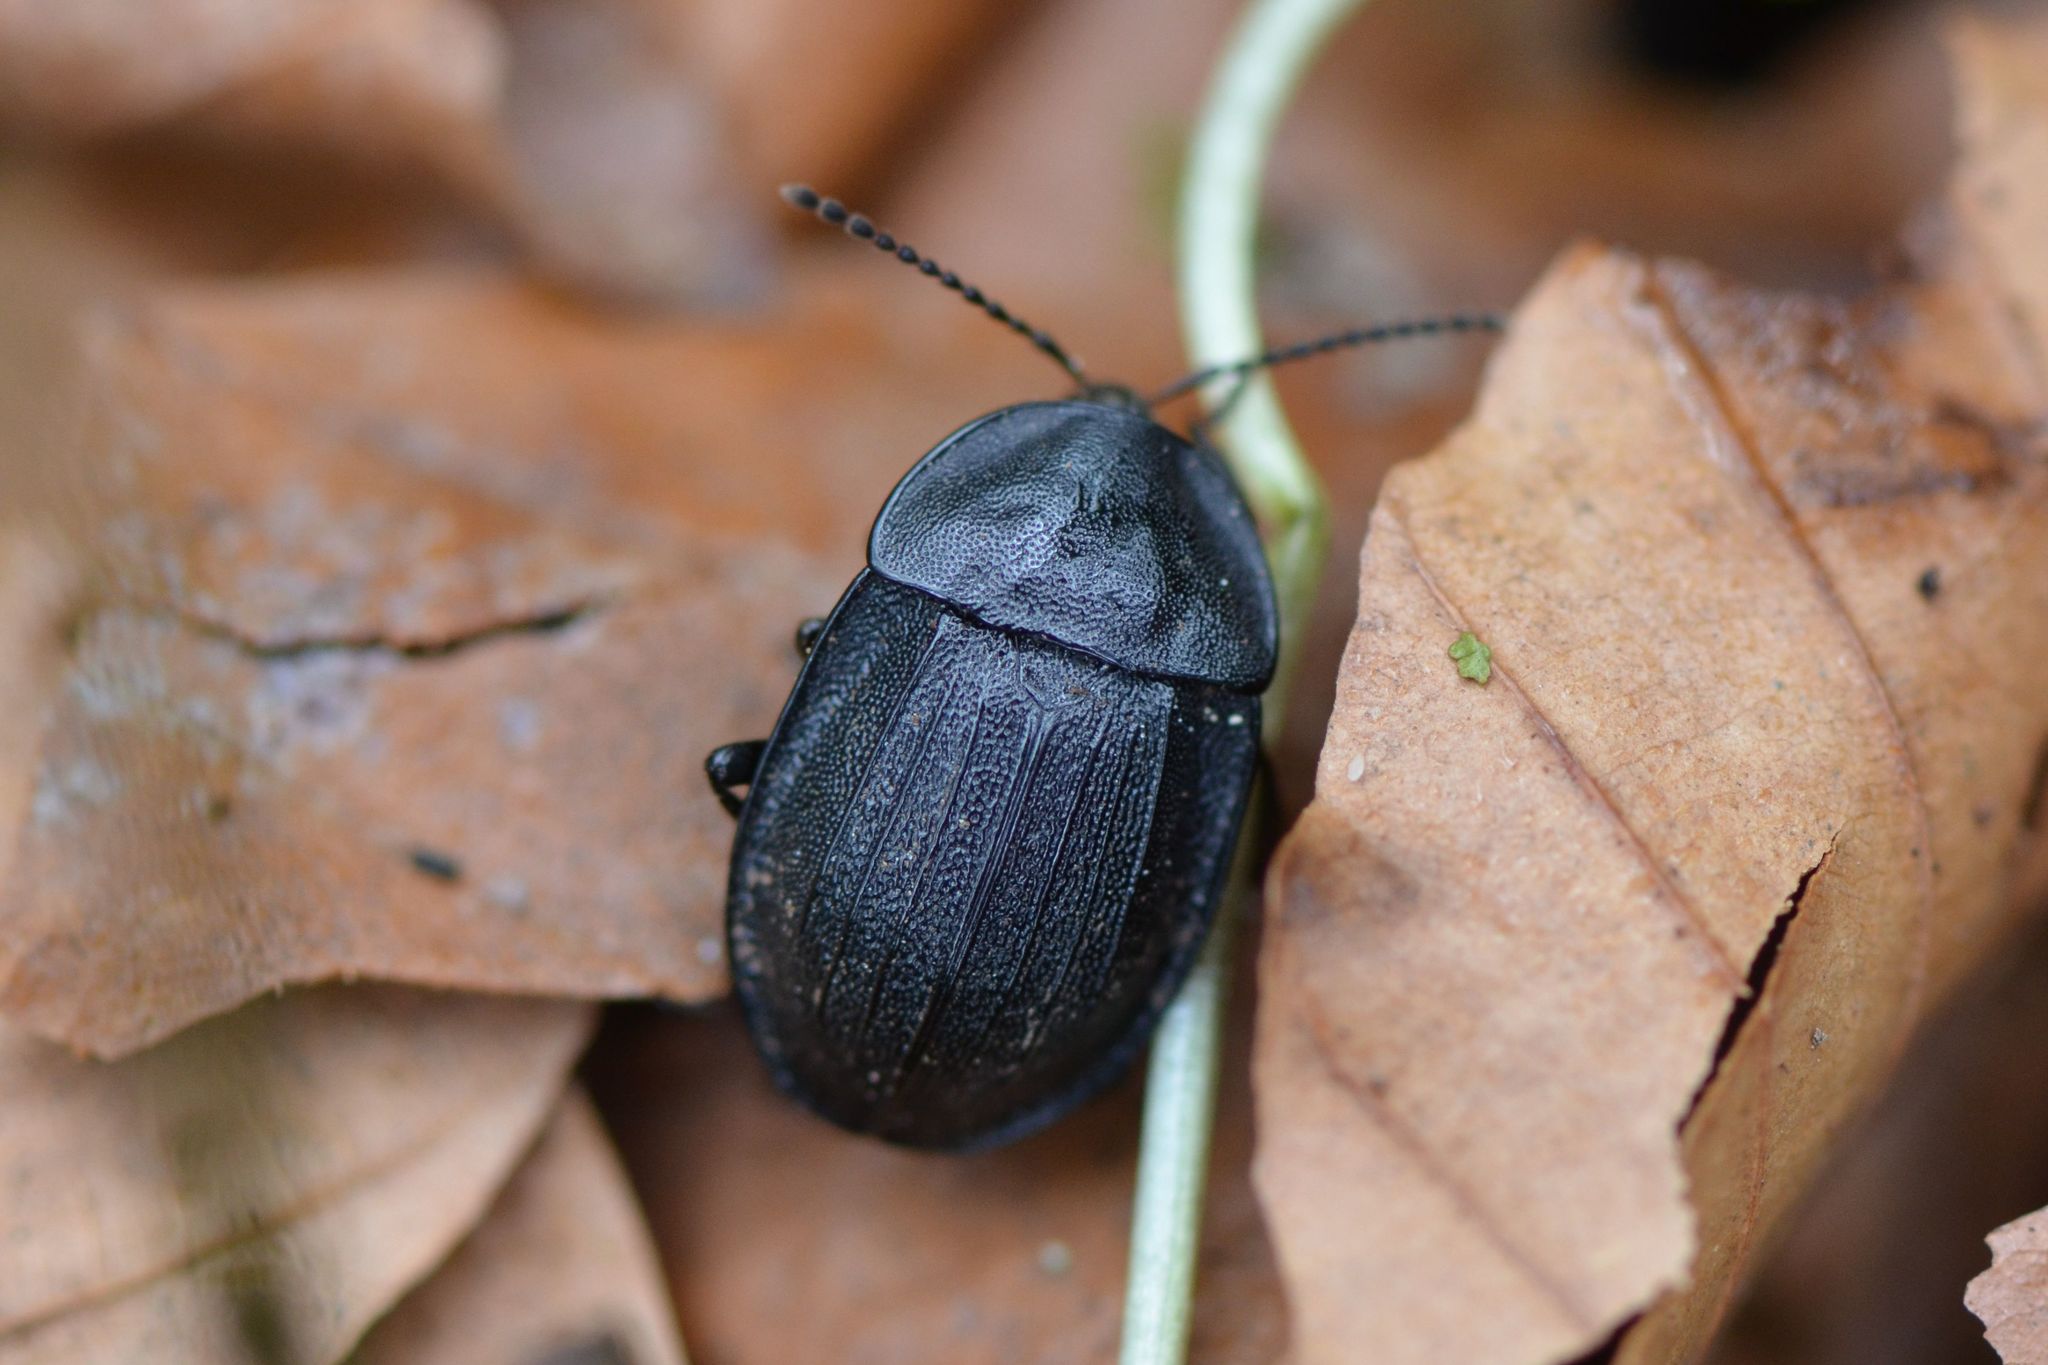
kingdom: Animalia
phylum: Arthropoda
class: Insecta
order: Coleoptera
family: Staphylinidae
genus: Silpha
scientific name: Silpha atrata
